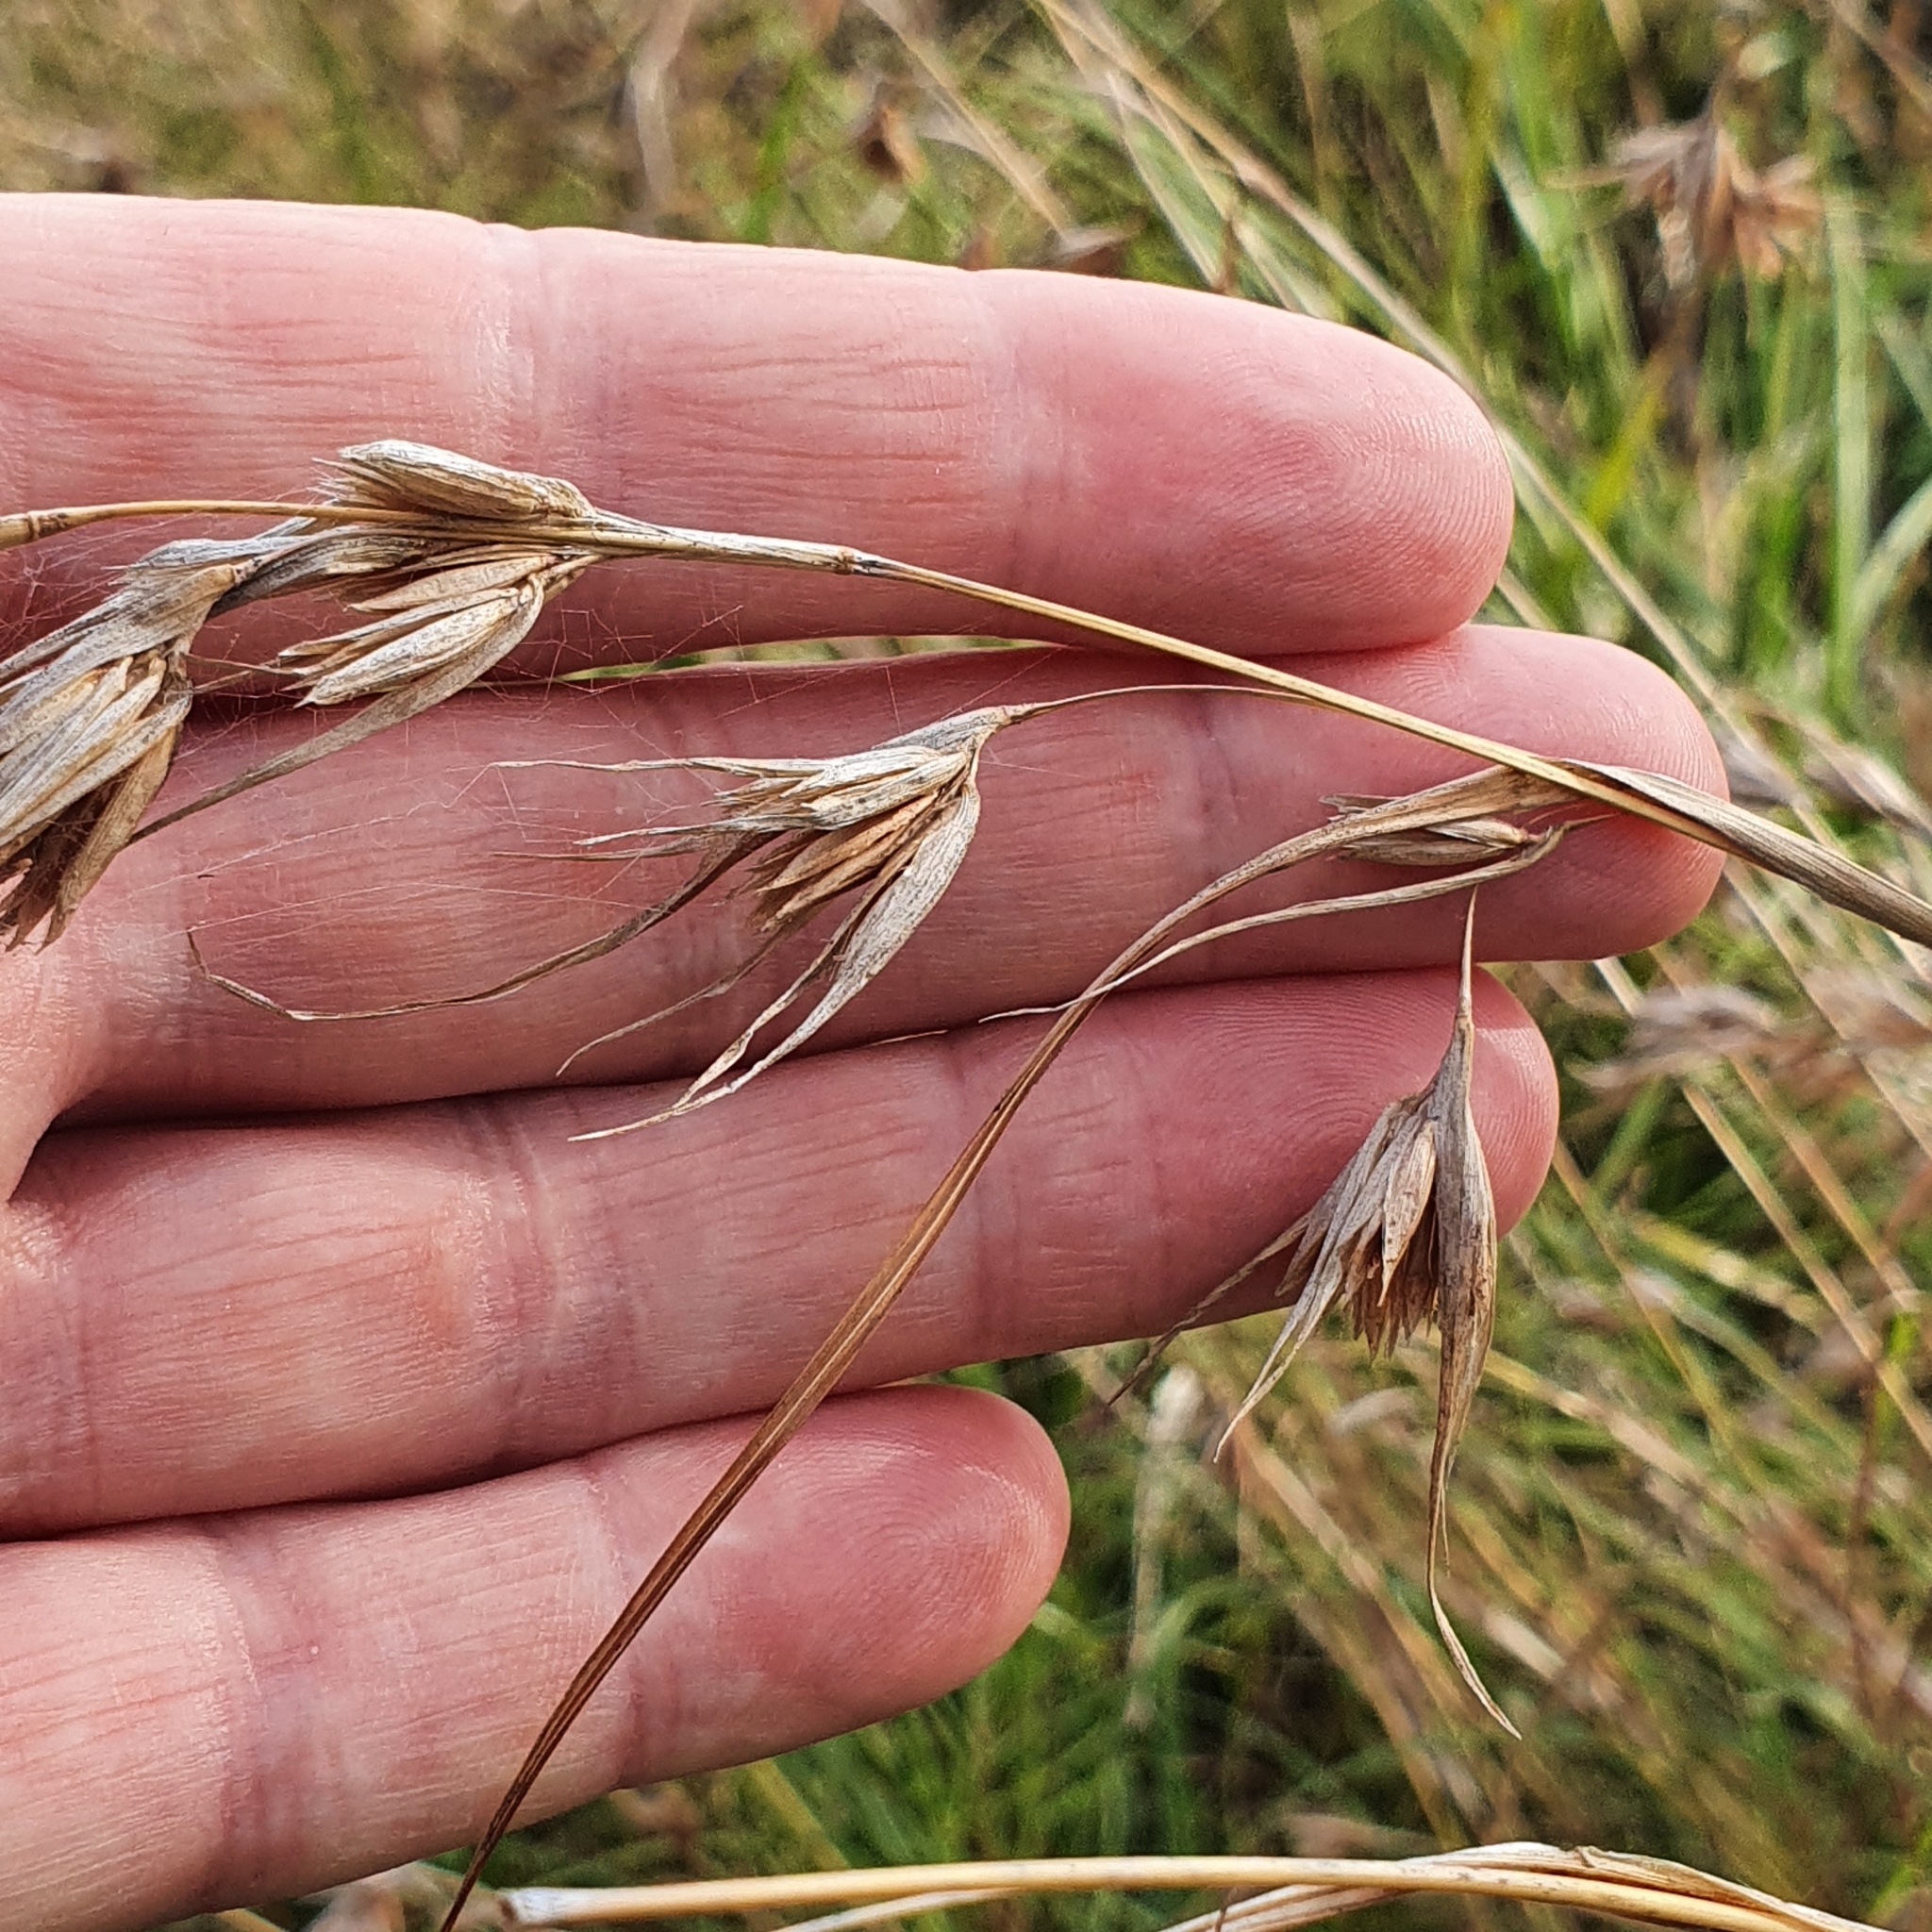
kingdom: Plantae
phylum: Tracheophyta
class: Liliopsida
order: Poales
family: Poaceae
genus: Themeda
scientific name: Themeda triandra
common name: Kangaroo grass
